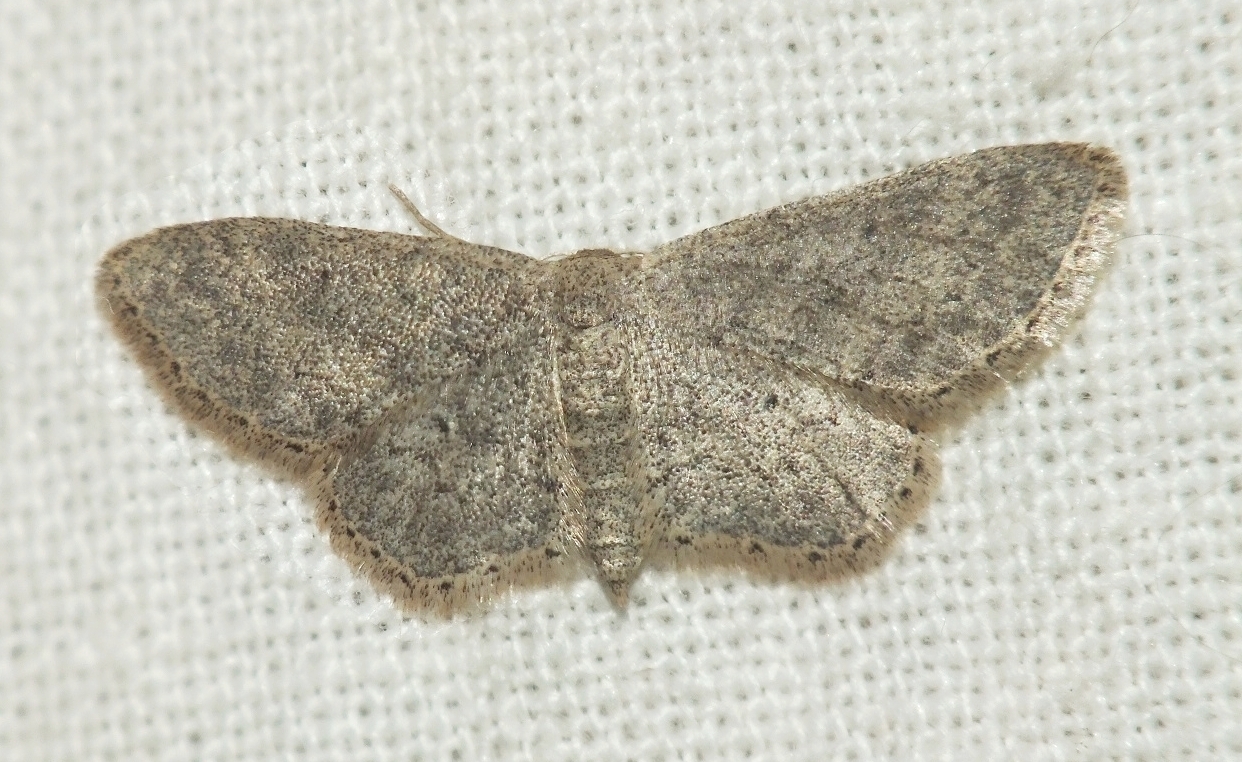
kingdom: Animalia
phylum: Arthropoda
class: Insecta
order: Lepidoptera
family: Geometridae
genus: Idaea
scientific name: Idaea descitaria
